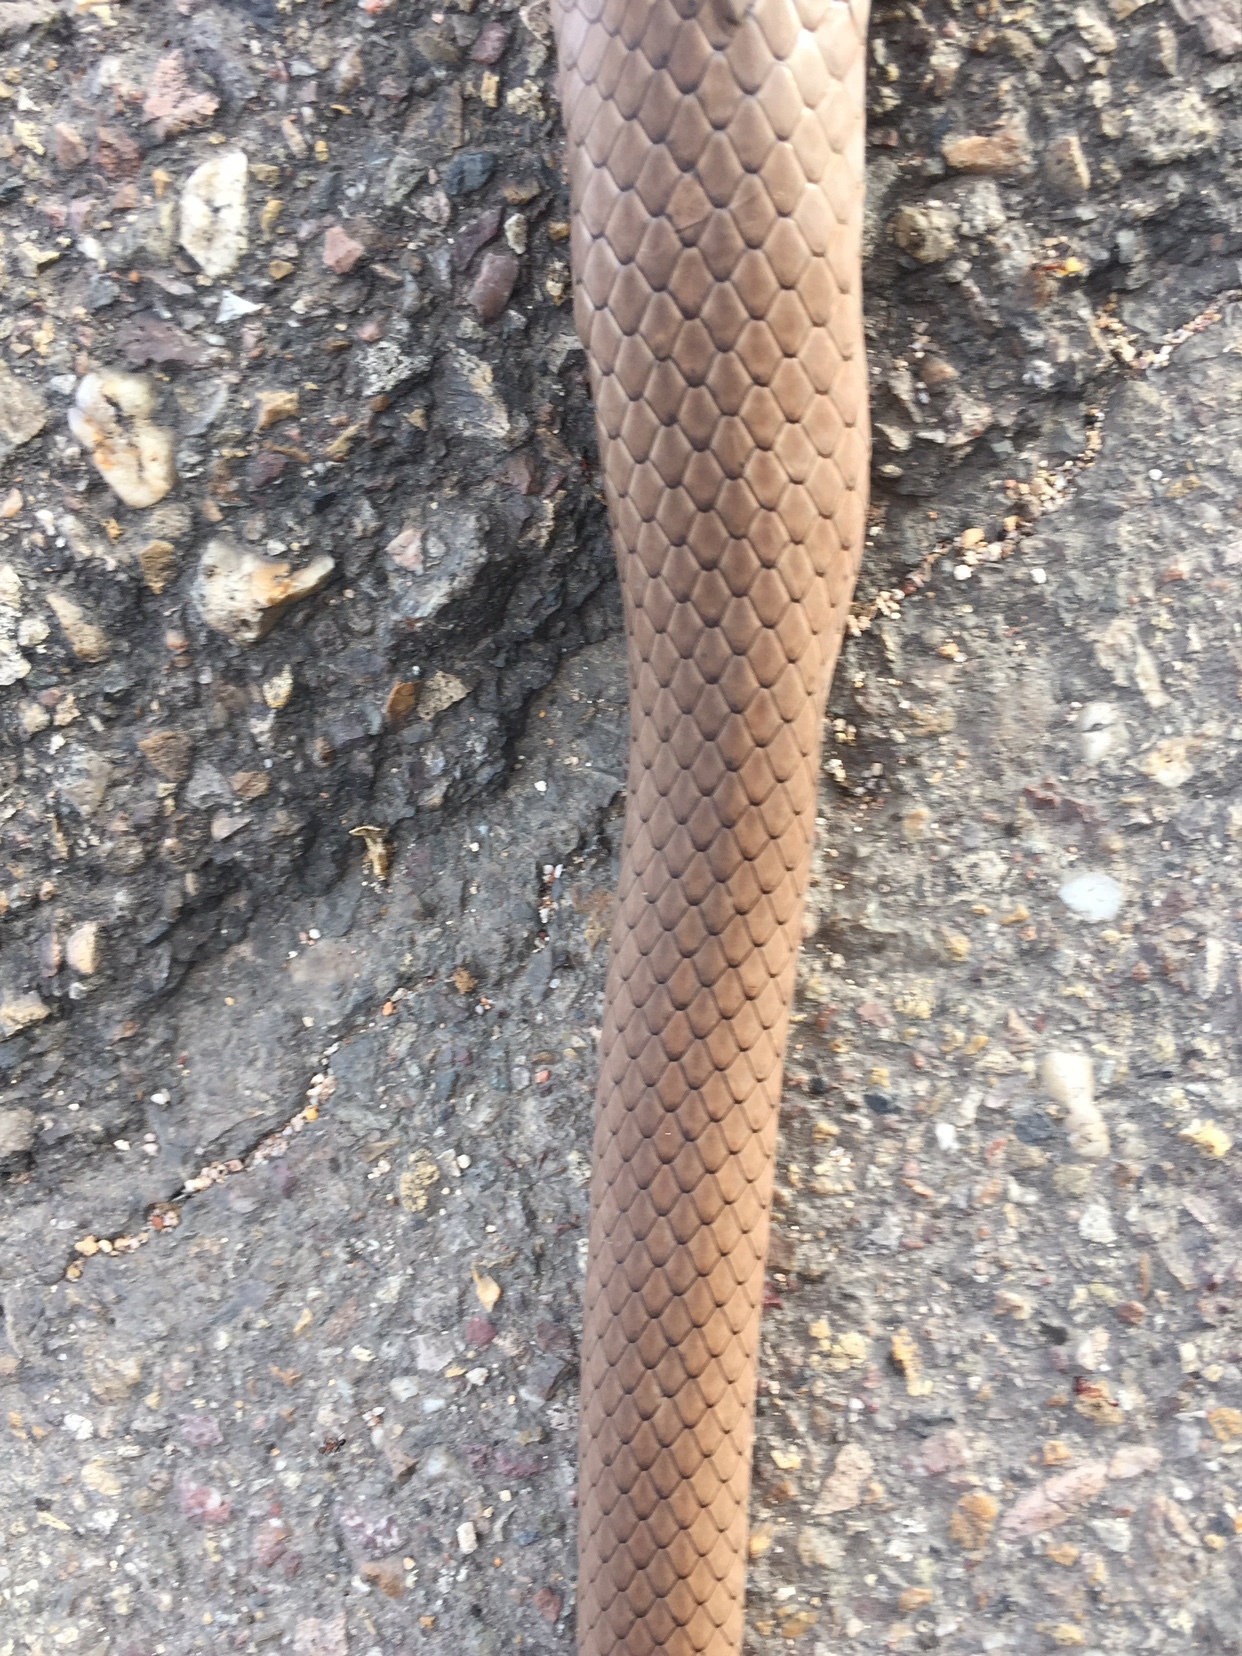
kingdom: Animalia
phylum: Chordata
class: Squamata
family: Colubridae
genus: Masticophis
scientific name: Masticophis mentovarius
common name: Neotropical whip snake
